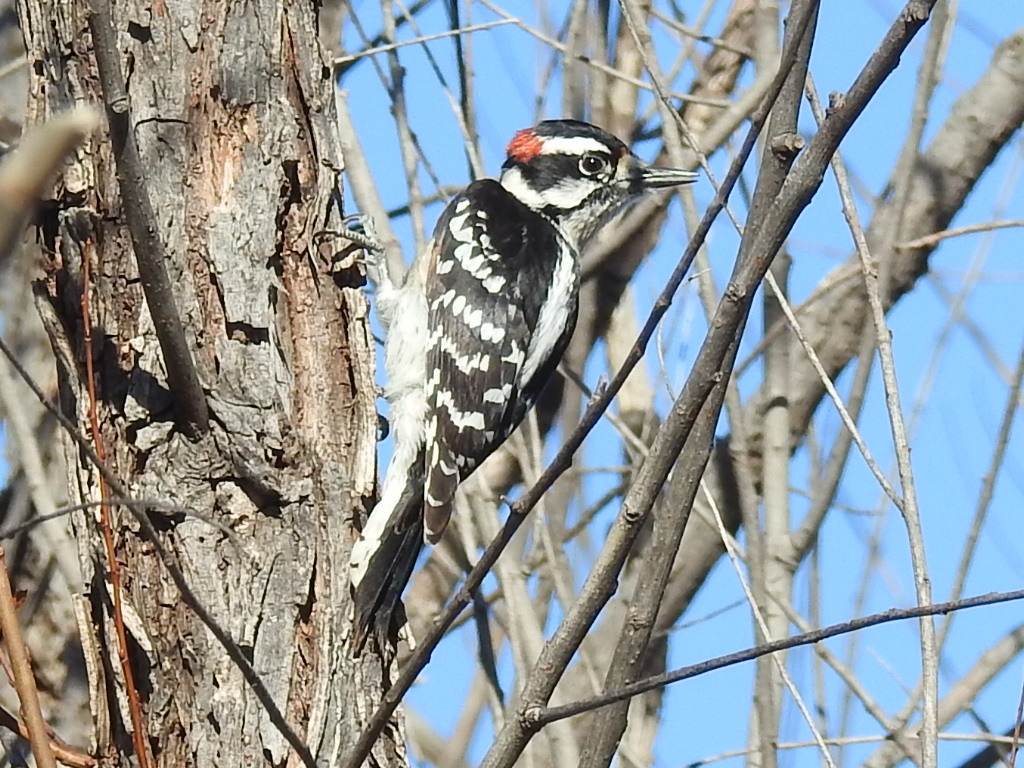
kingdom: Animalia
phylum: Chordata
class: Aves
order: Piciformes
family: Picidae
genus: Dryobates
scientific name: Dryobates pubescens
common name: Downy woodpecker
